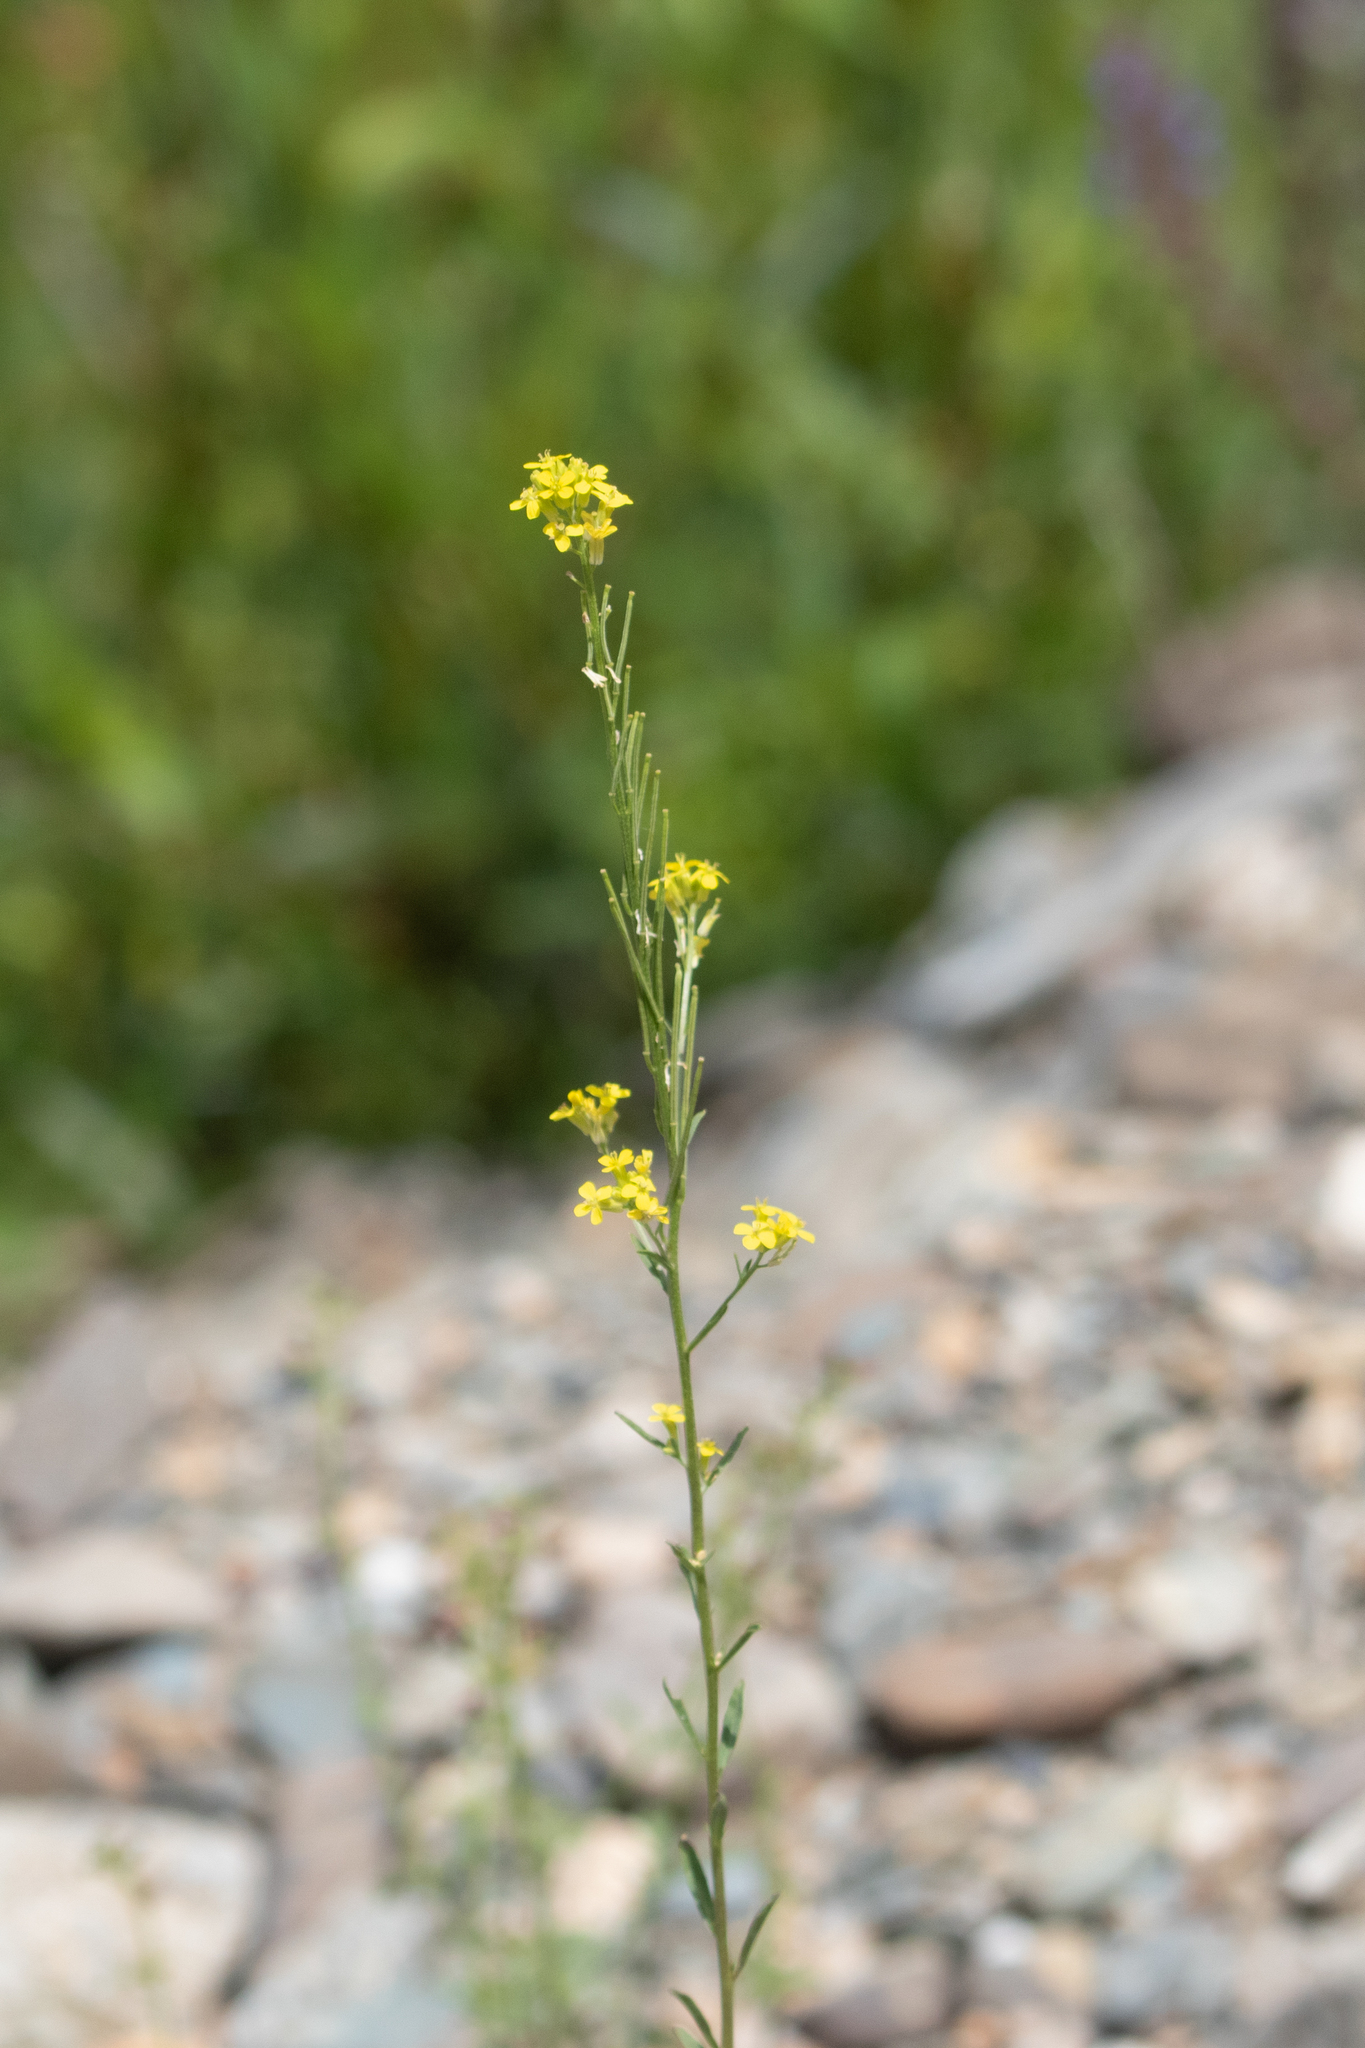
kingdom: Plantae
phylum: Tracheophyta
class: Magnoliopsida
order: Brassicales
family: Brassicaceae
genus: Erysimum
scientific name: Erysimum hieraciifolium
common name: European wallflower
